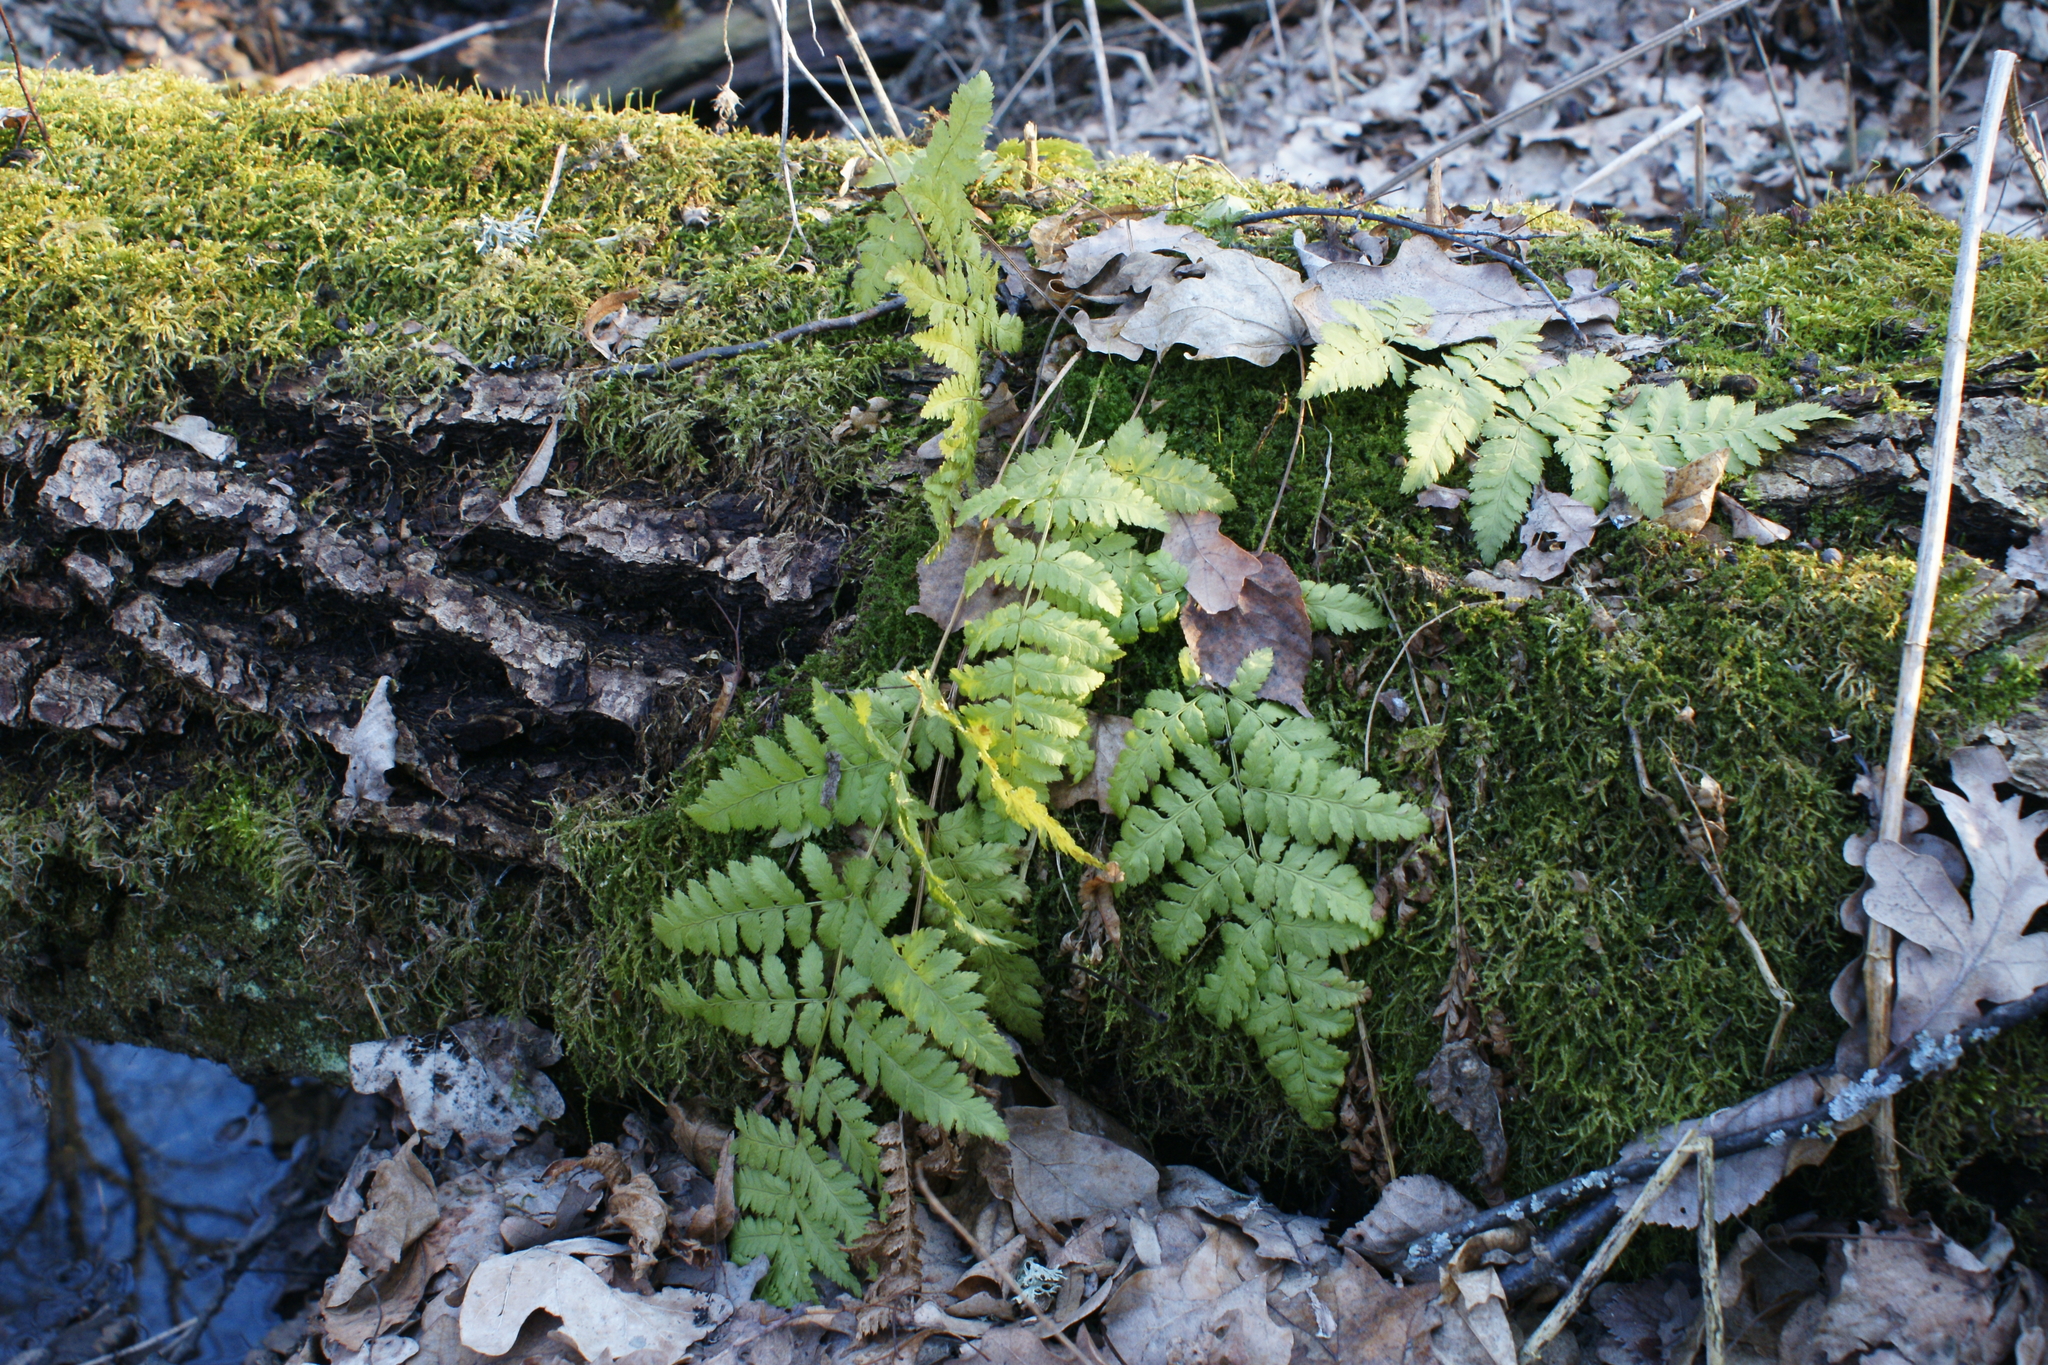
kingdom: Plantae
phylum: Tracheophyta
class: Polypodiopsida
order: Polypodiales
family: Dryopteridaceae
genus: Dryopteris
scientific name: Dryopteris carthusiana
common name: Narrow buckler-fern
